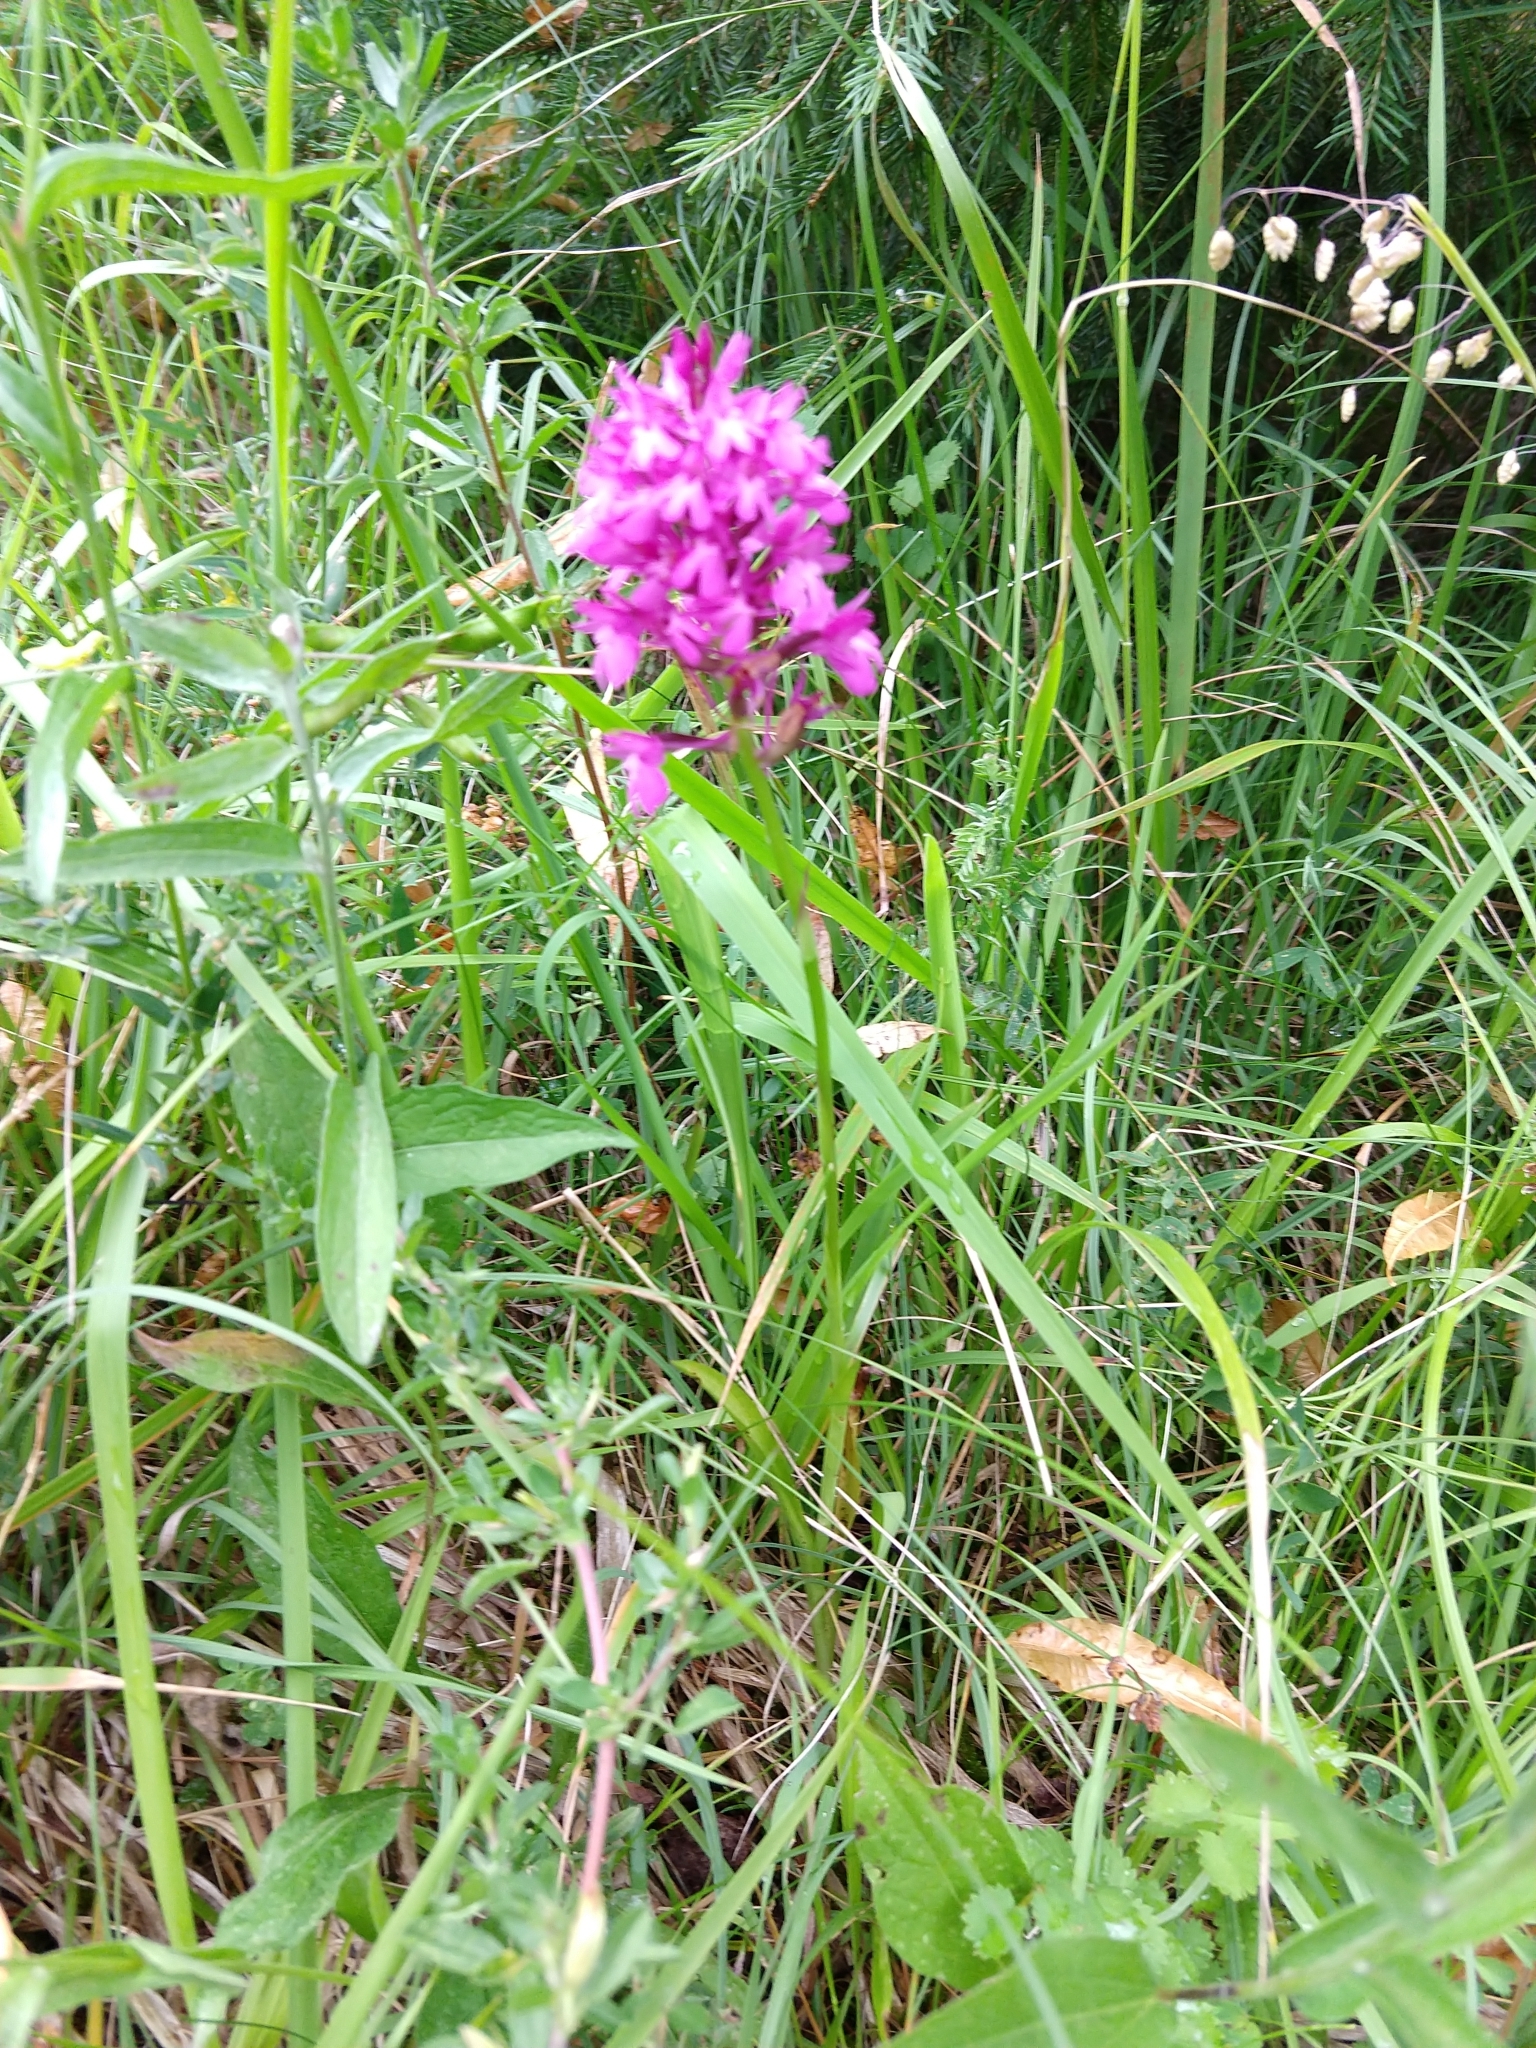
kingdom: Plantae
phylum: Tracheophyta
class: Liliopsida
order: Asparagales
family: Orchidaceae
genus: Anacamptis
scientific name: Anacamptis pyramidalis
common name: Pyramidal orchid
